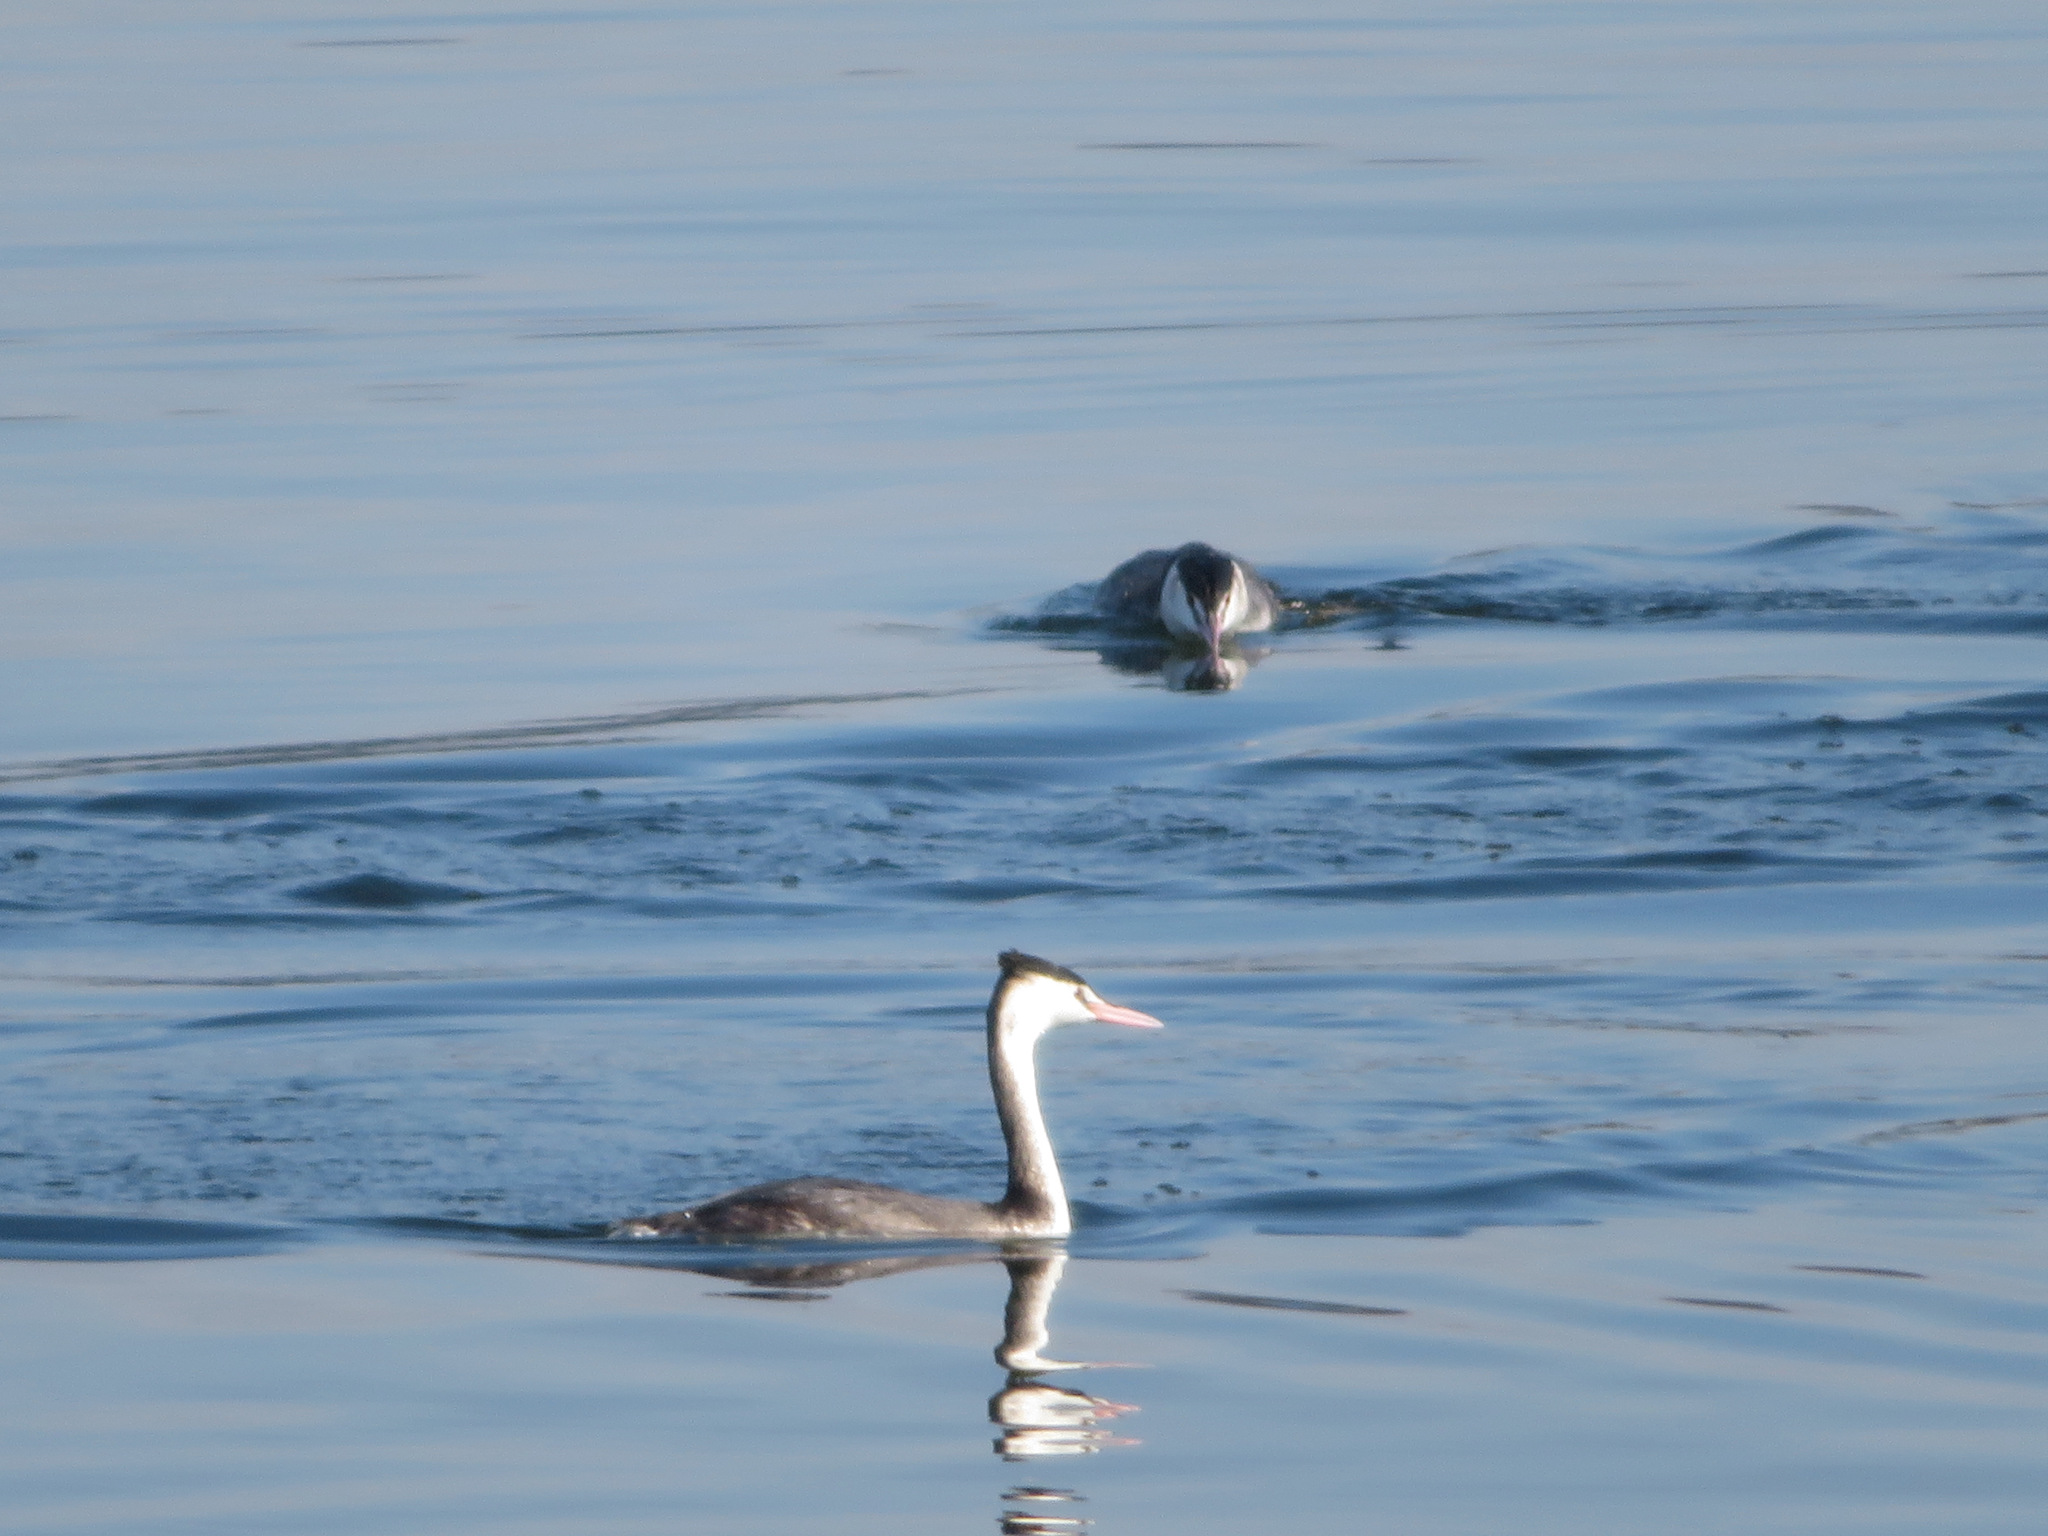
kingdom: Animalia
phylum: Chordata
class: Aves
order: Podicipediformes
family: Podicipedidae
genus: Podiceps
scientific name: Podiceps cristatus
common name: Great crested grebe
